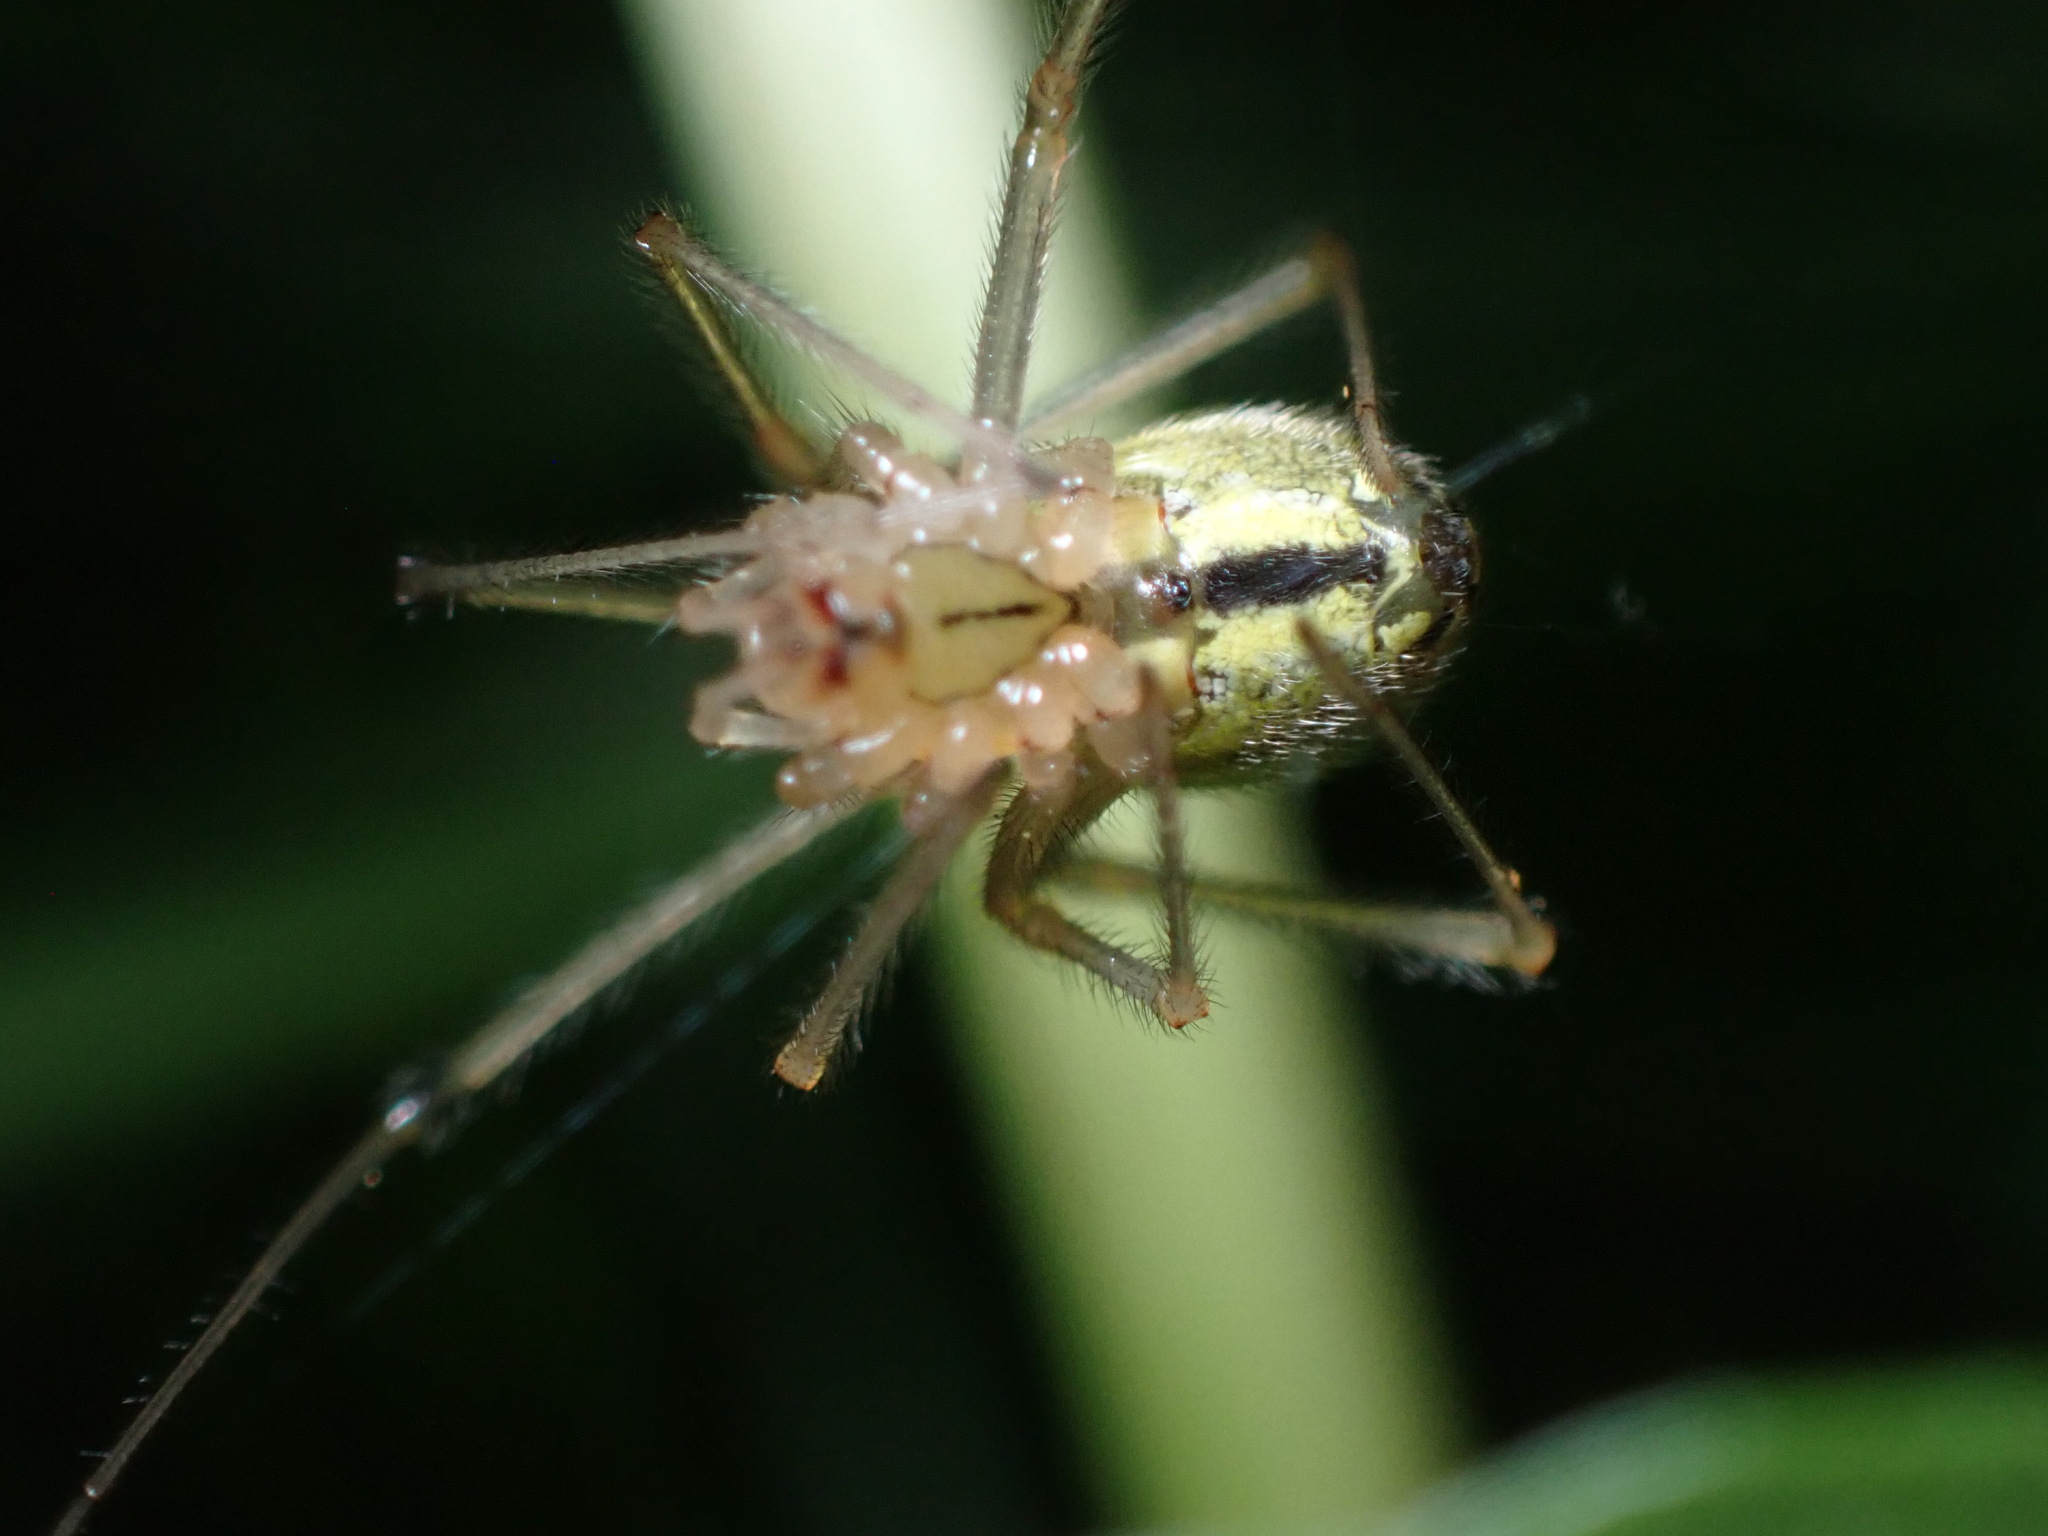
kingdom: Animalia
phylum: Arthropoda
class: Arachnida
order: Araneae
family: Theridiidae
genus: Enoplognatha
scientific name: Enoplognatha ovata
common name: Common candy-striped spider
